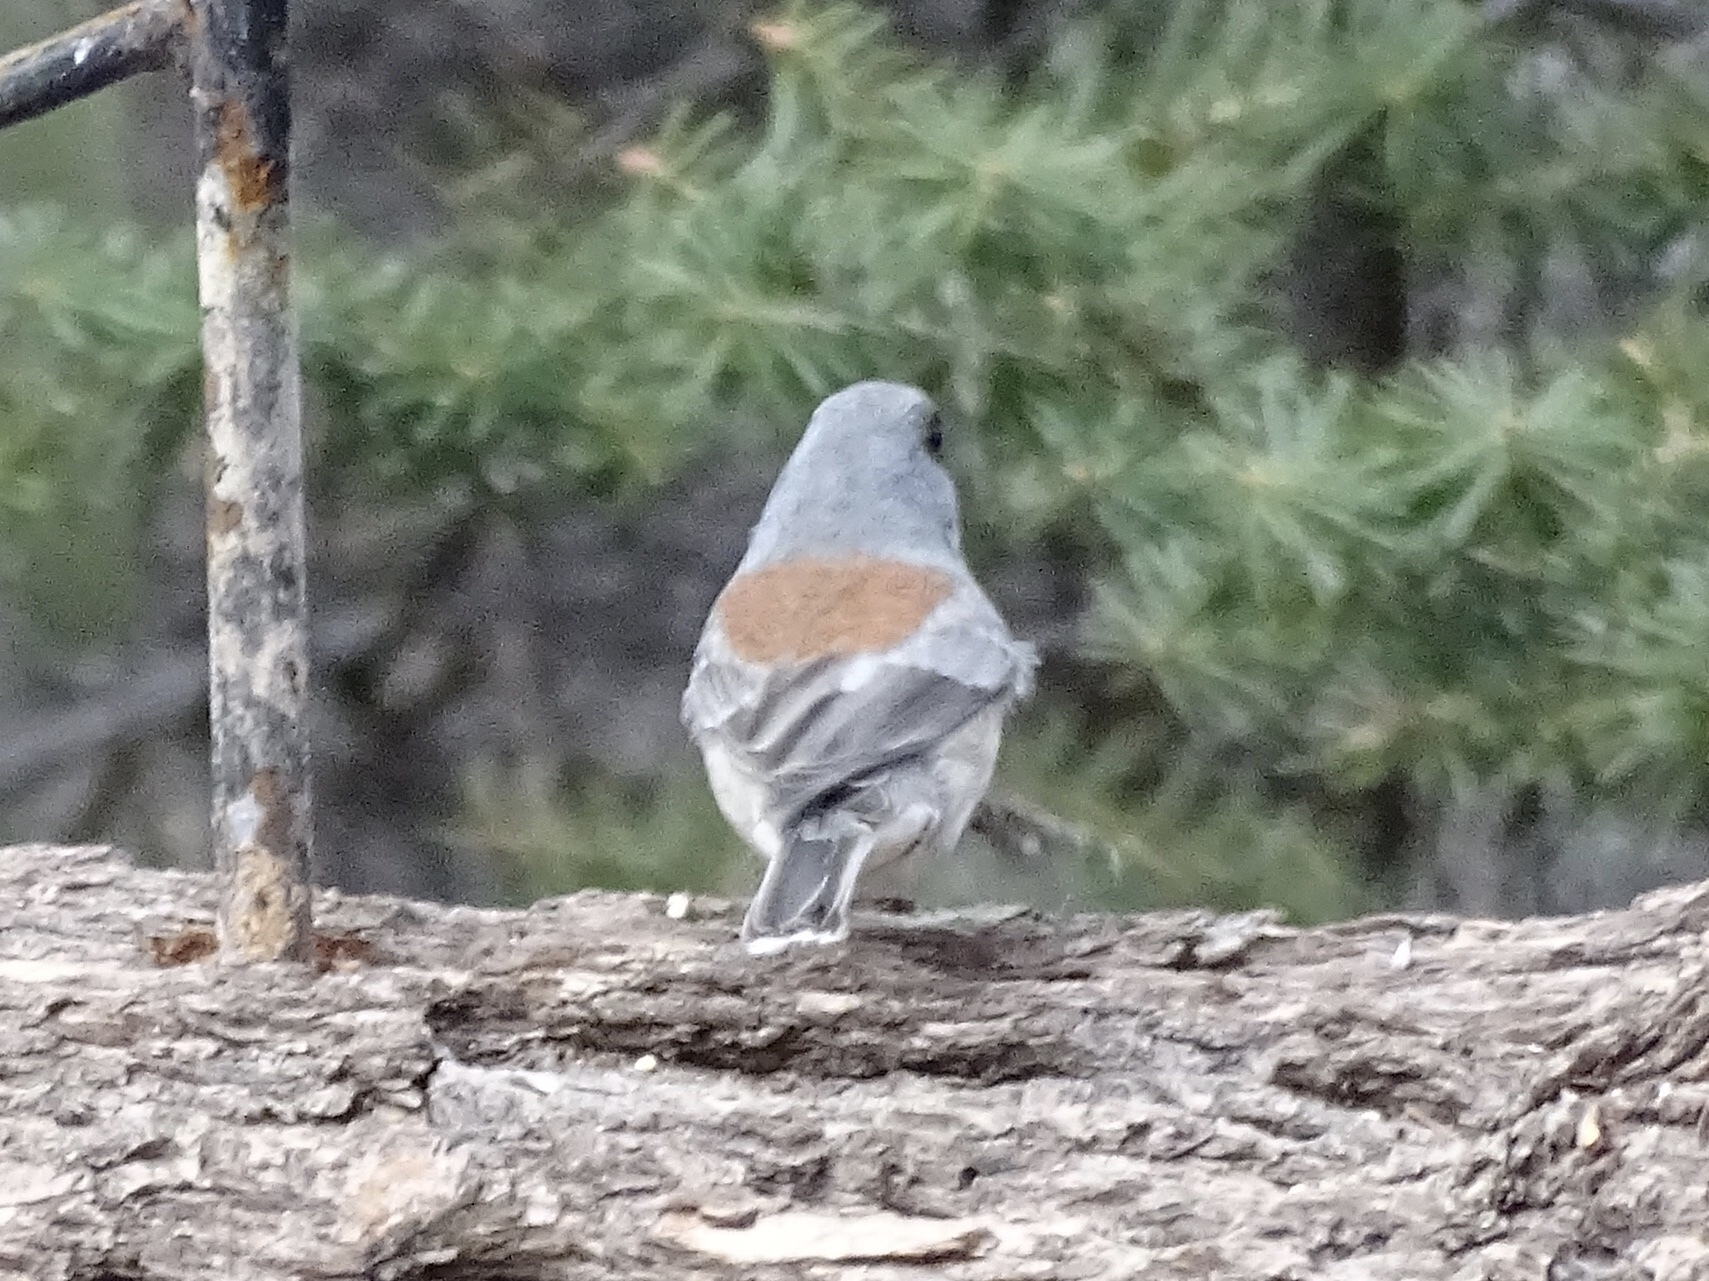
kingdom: Animalia
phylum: Chordata
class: Aves
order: Passeriformes
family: Passerellidae
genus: Junco
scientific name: Junco hyemalis
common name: Dark-eyed junco
